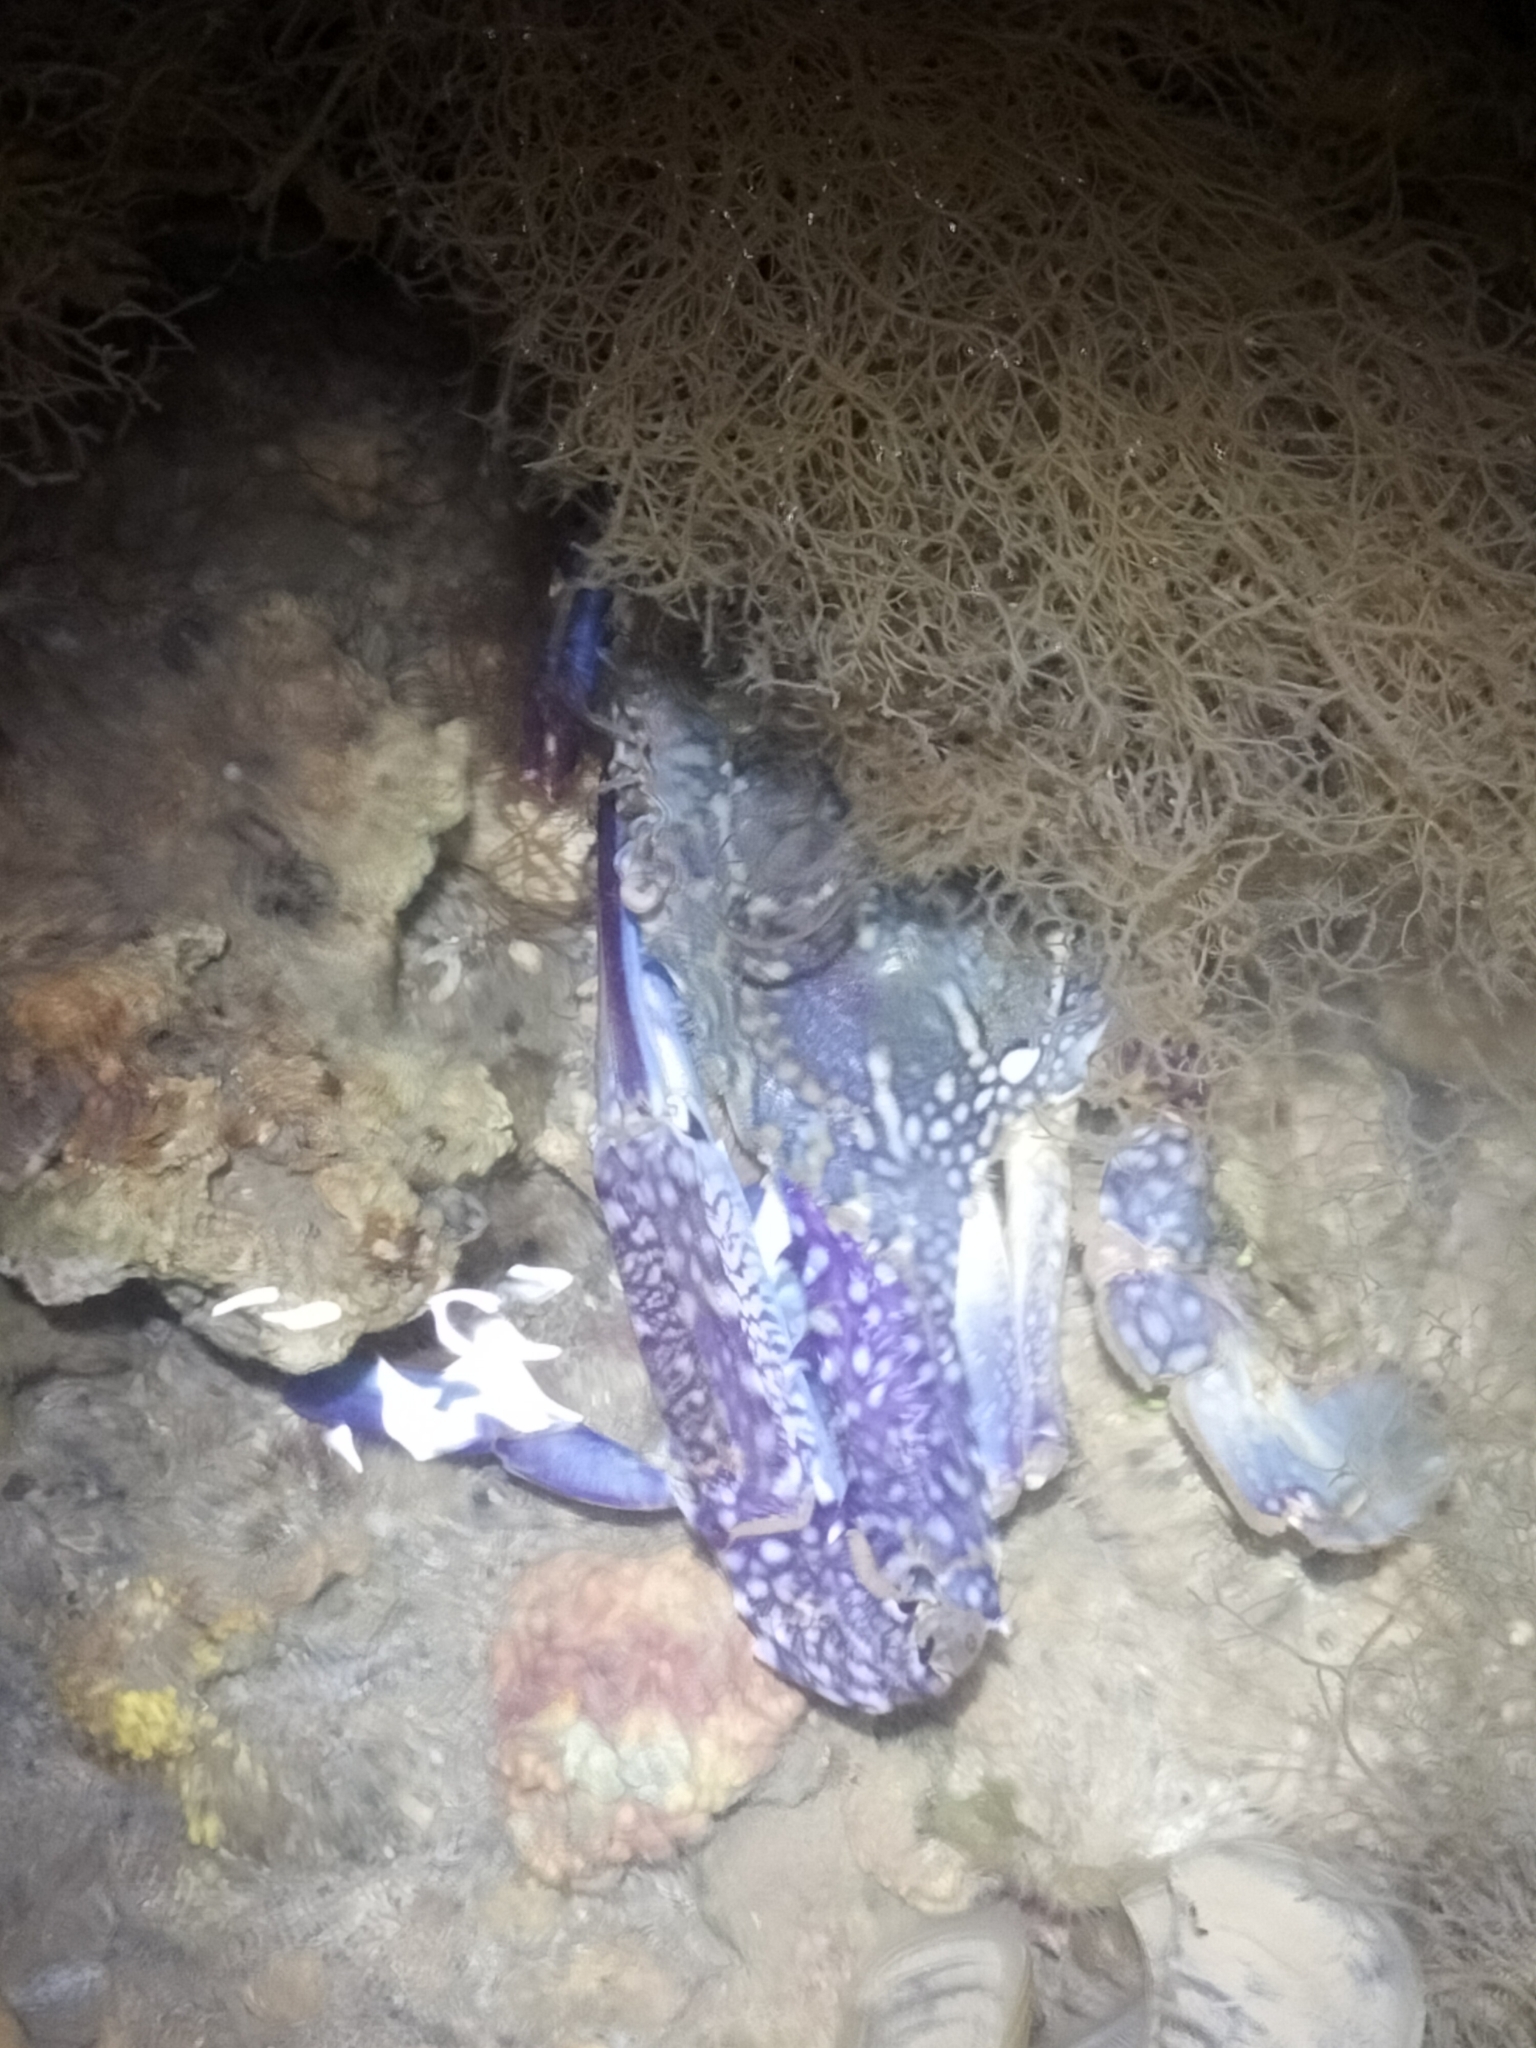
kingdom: Animalia
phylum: Arthropoda
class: Malacostraca
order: Decapoda
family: Portunidae
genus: Portunus
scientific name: Portunus armatus
